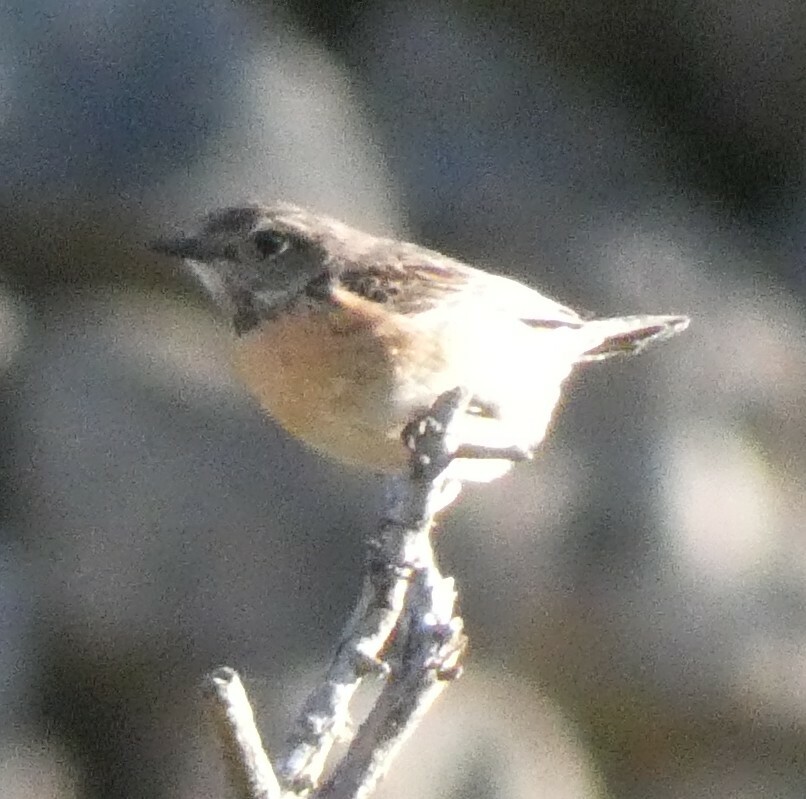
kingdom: Animalia
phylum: Chordata
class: Aves
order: Passeriformes
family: Muscicapidae
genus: Saxicola
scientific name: Saxicola rubicola
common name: European stonechat
